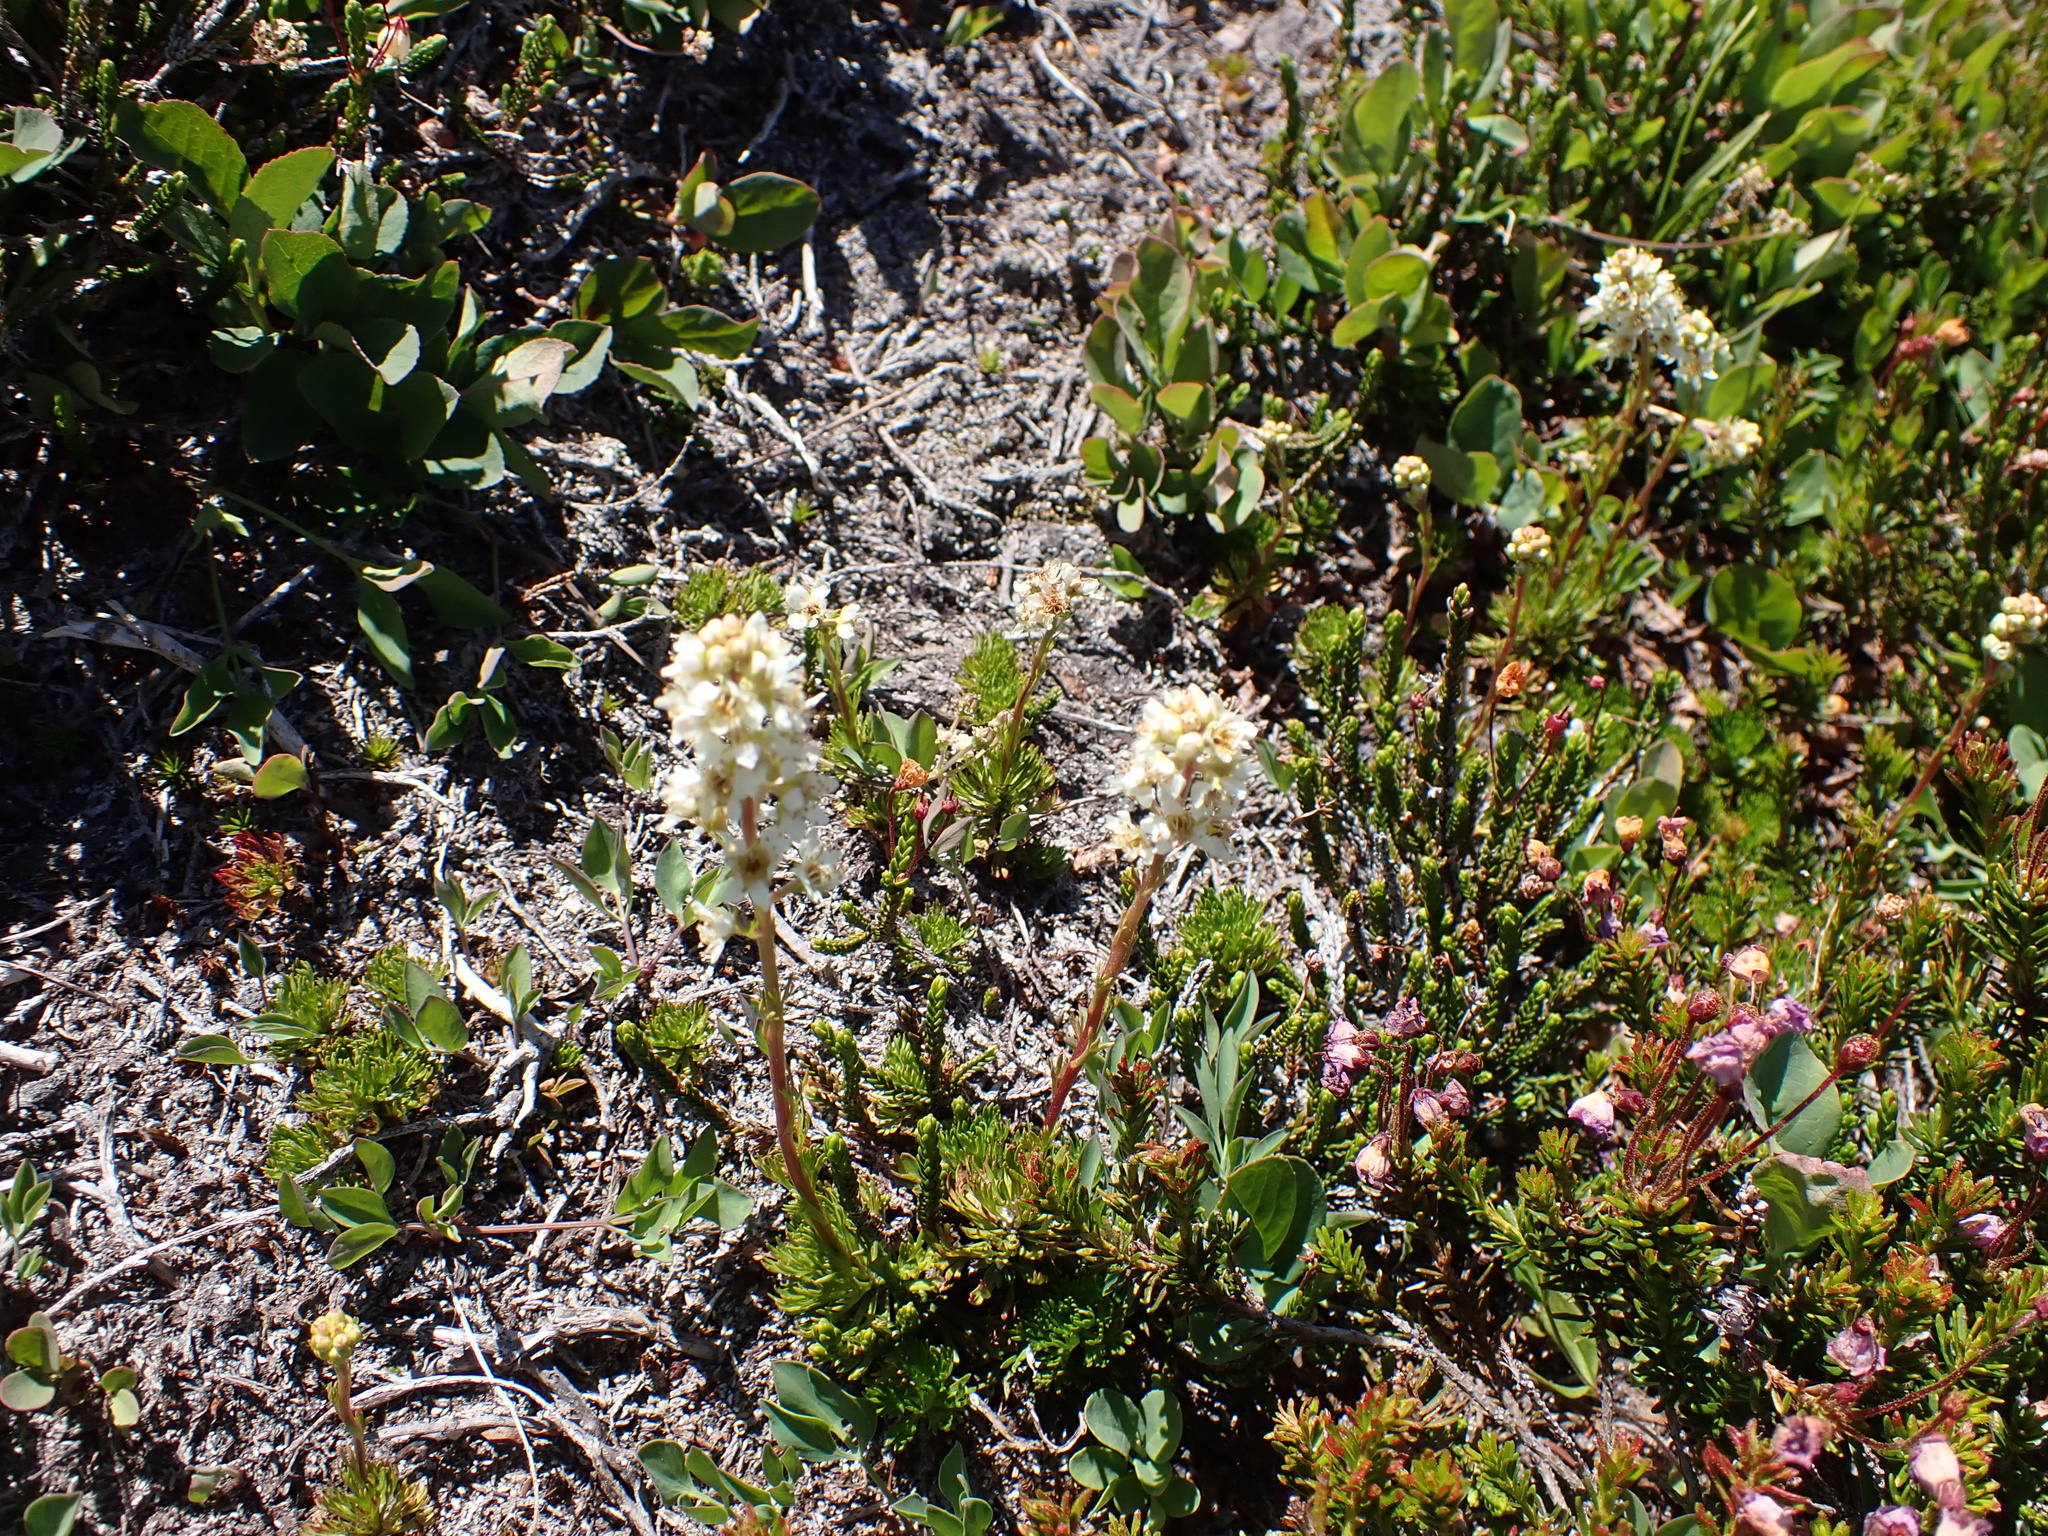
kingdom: Plantae
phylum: Tracheophyta
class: Magnoliopsida
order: Rosales
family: Rosaceae
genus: Luetkea
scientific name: Luetkea pectinata
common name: Partridgefoot
